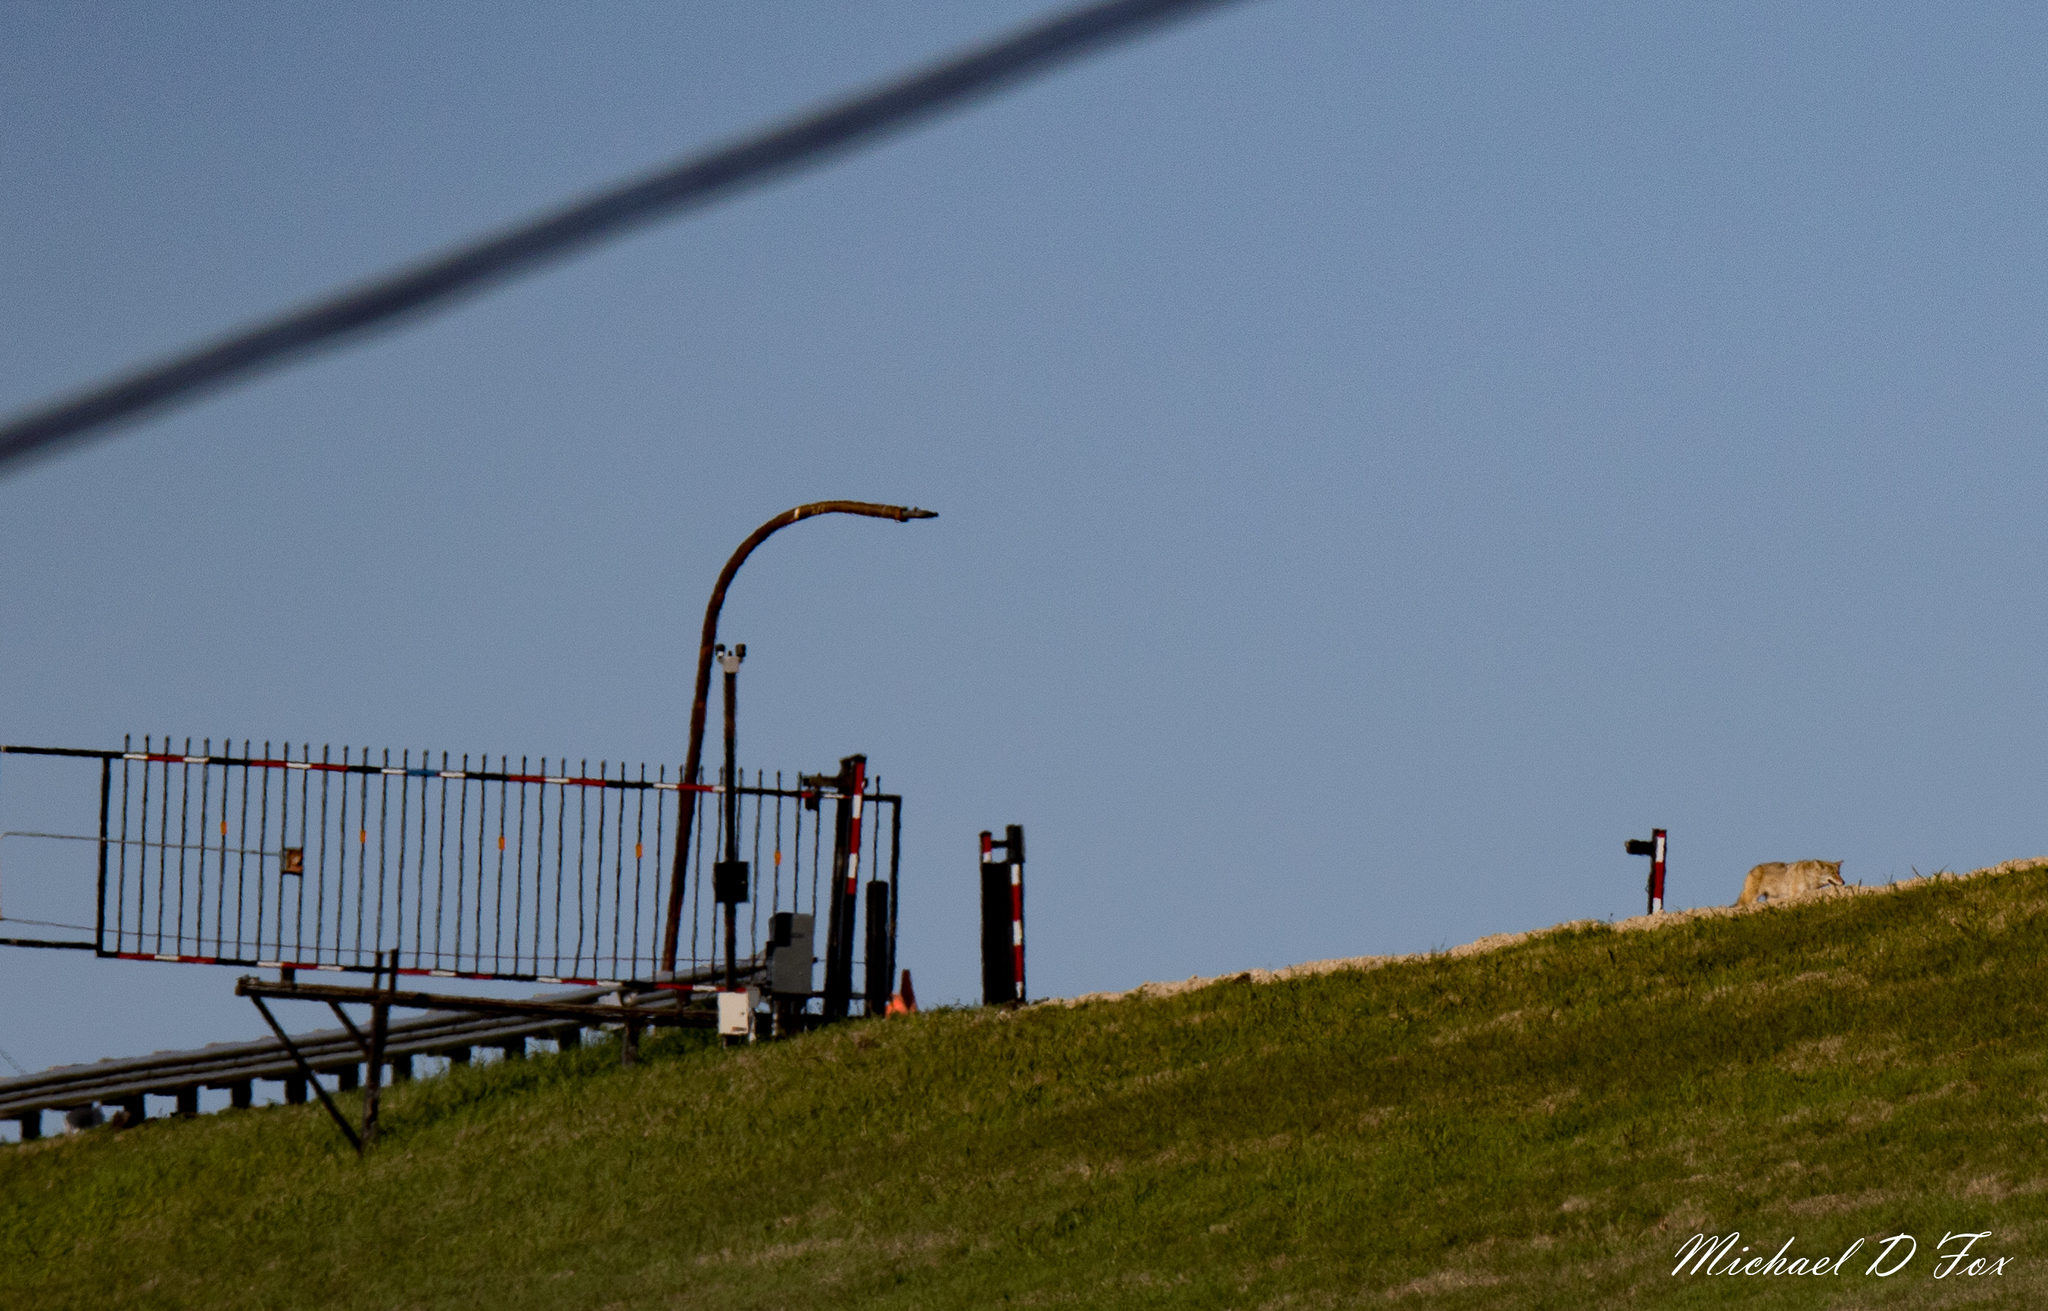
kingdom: Animalia
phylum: Chordata
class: Mammalia
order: Carnivora
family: Canidae
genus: Canis
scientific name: Canis latrans
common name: Coyote
